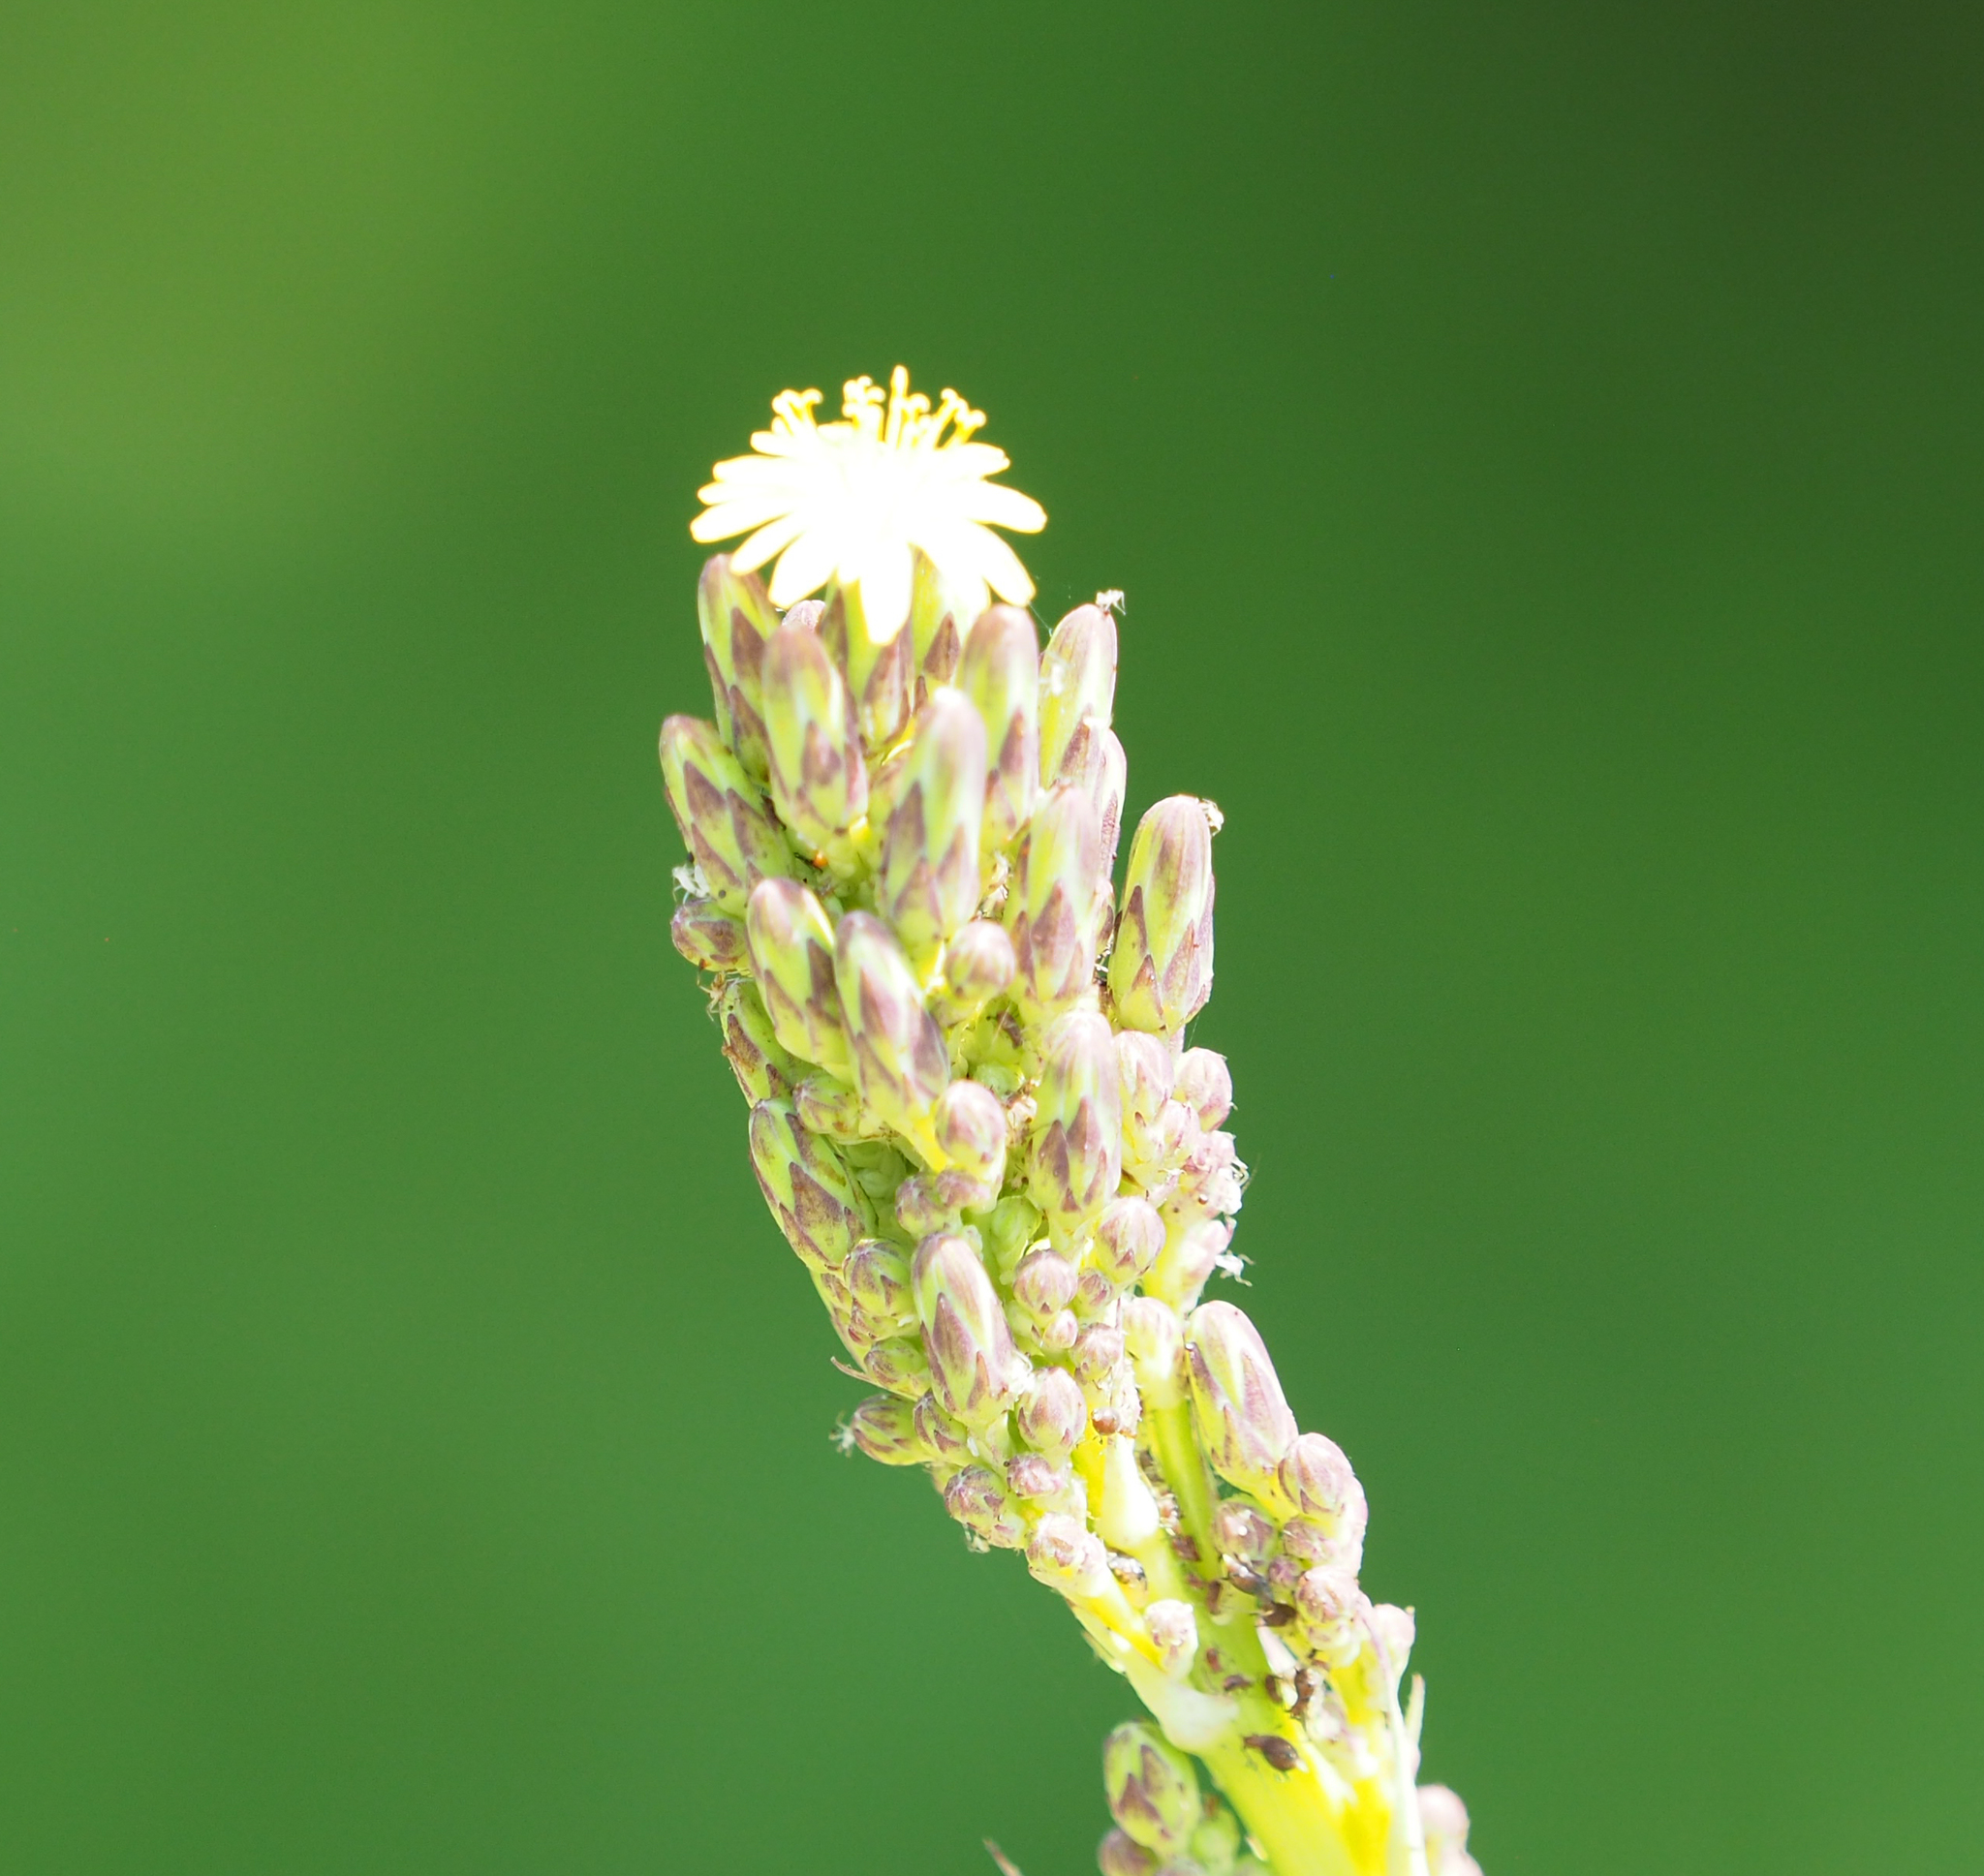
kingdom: Plantae
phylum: Tracheophyta
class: Magnoliopsida
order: Asterales
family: Asteraceae
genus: Lactuca
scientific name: Lactuca canadensis
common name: Canada lettuce
